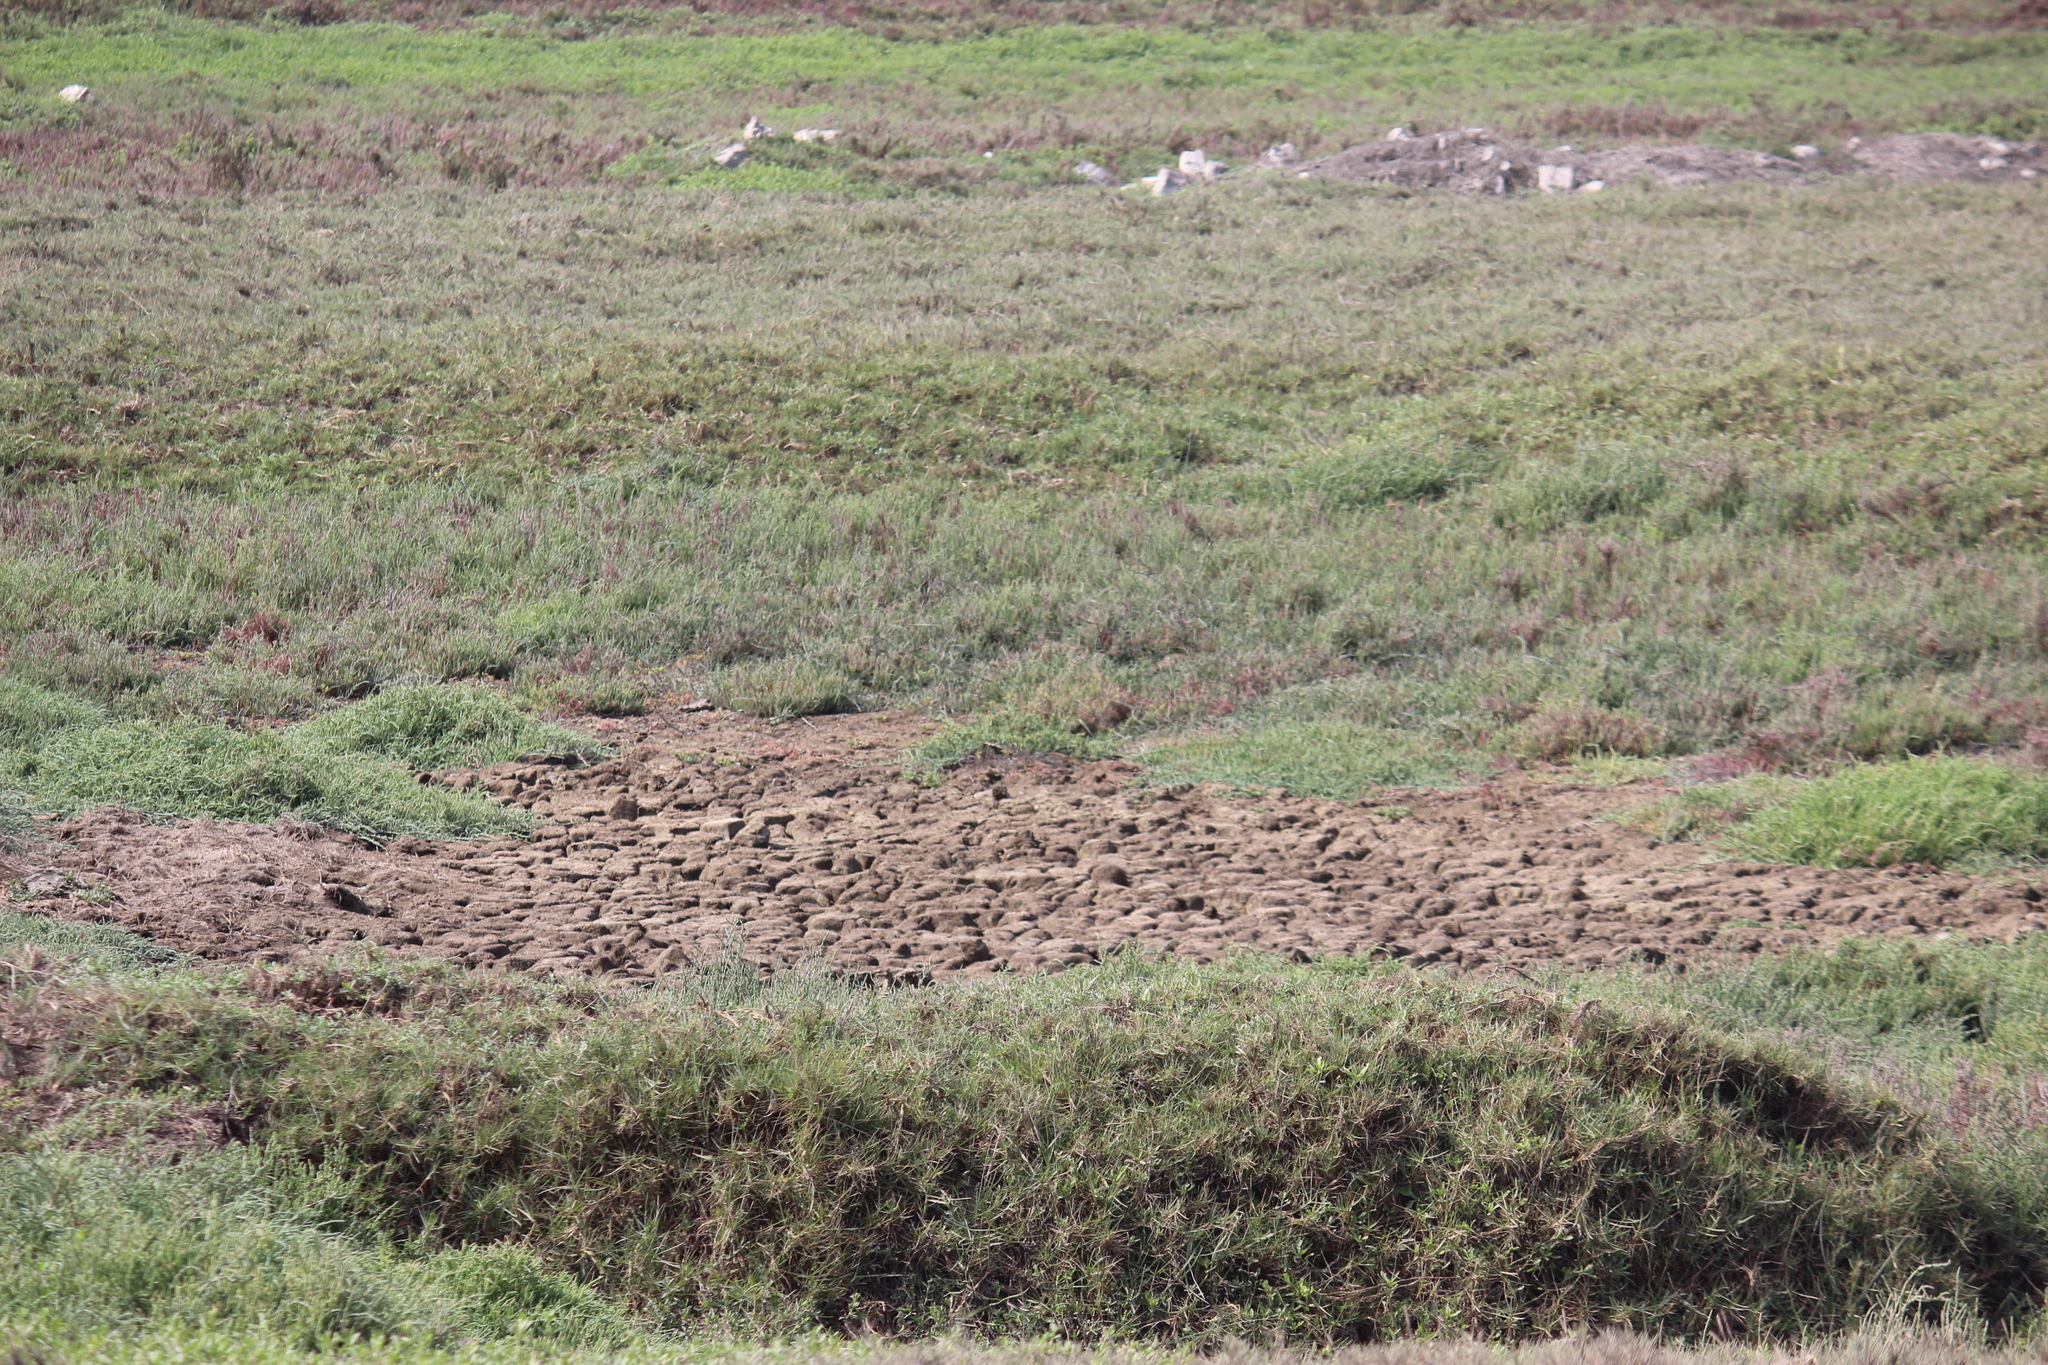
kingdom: Plantae
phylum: Tracheophyta
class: Liliopsida
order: Poales
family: Poaceae
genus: Distichlis
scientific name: Distichlis spicata
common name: Saltgrass
